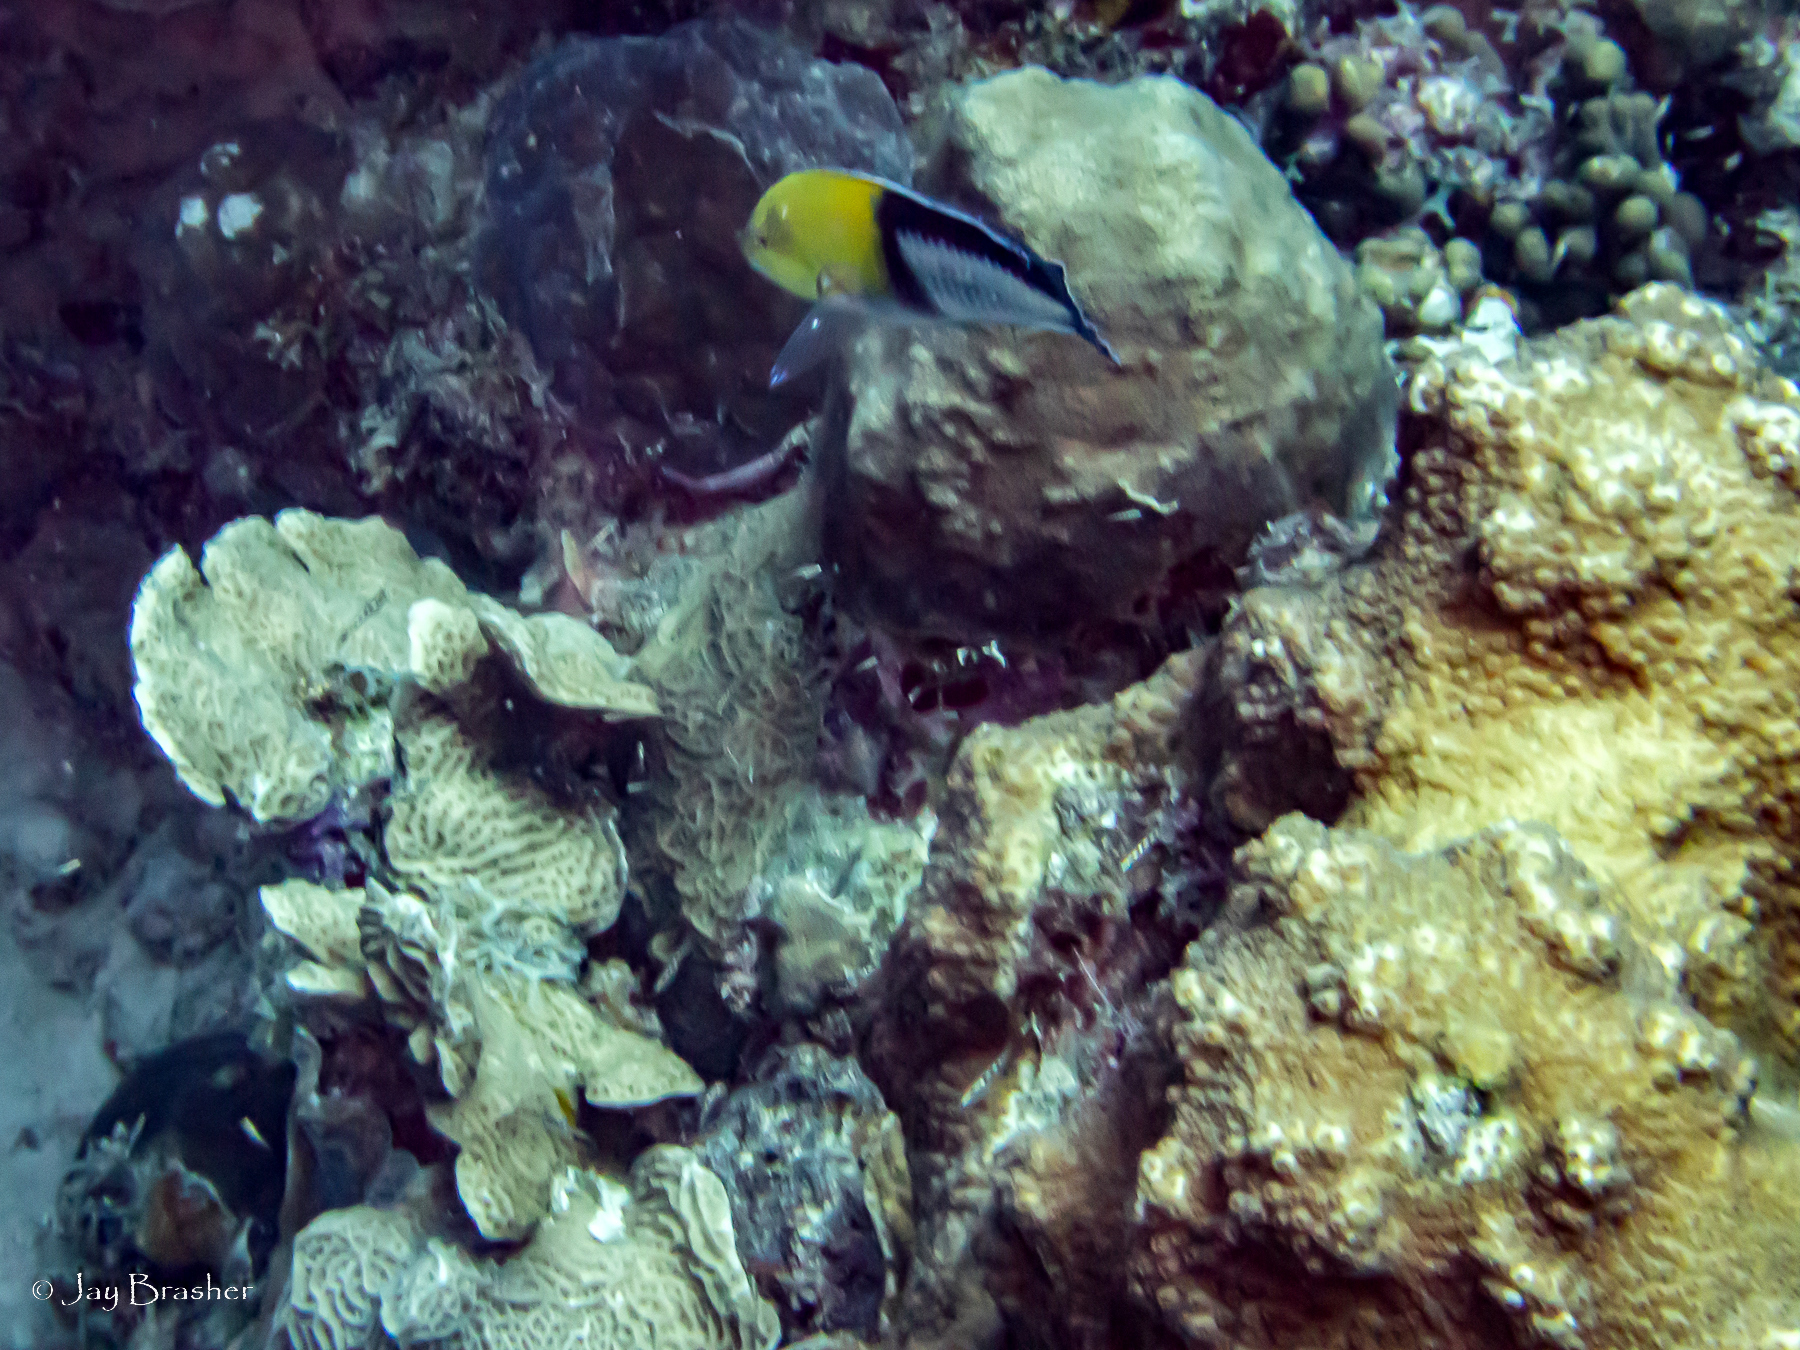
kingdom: Animalia
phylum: Cnidaria
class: Anthozoa
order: Scleractinia
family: Agariciidae
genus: Agaricia
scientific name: Agaricia agaricites
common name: Lettuce coral
